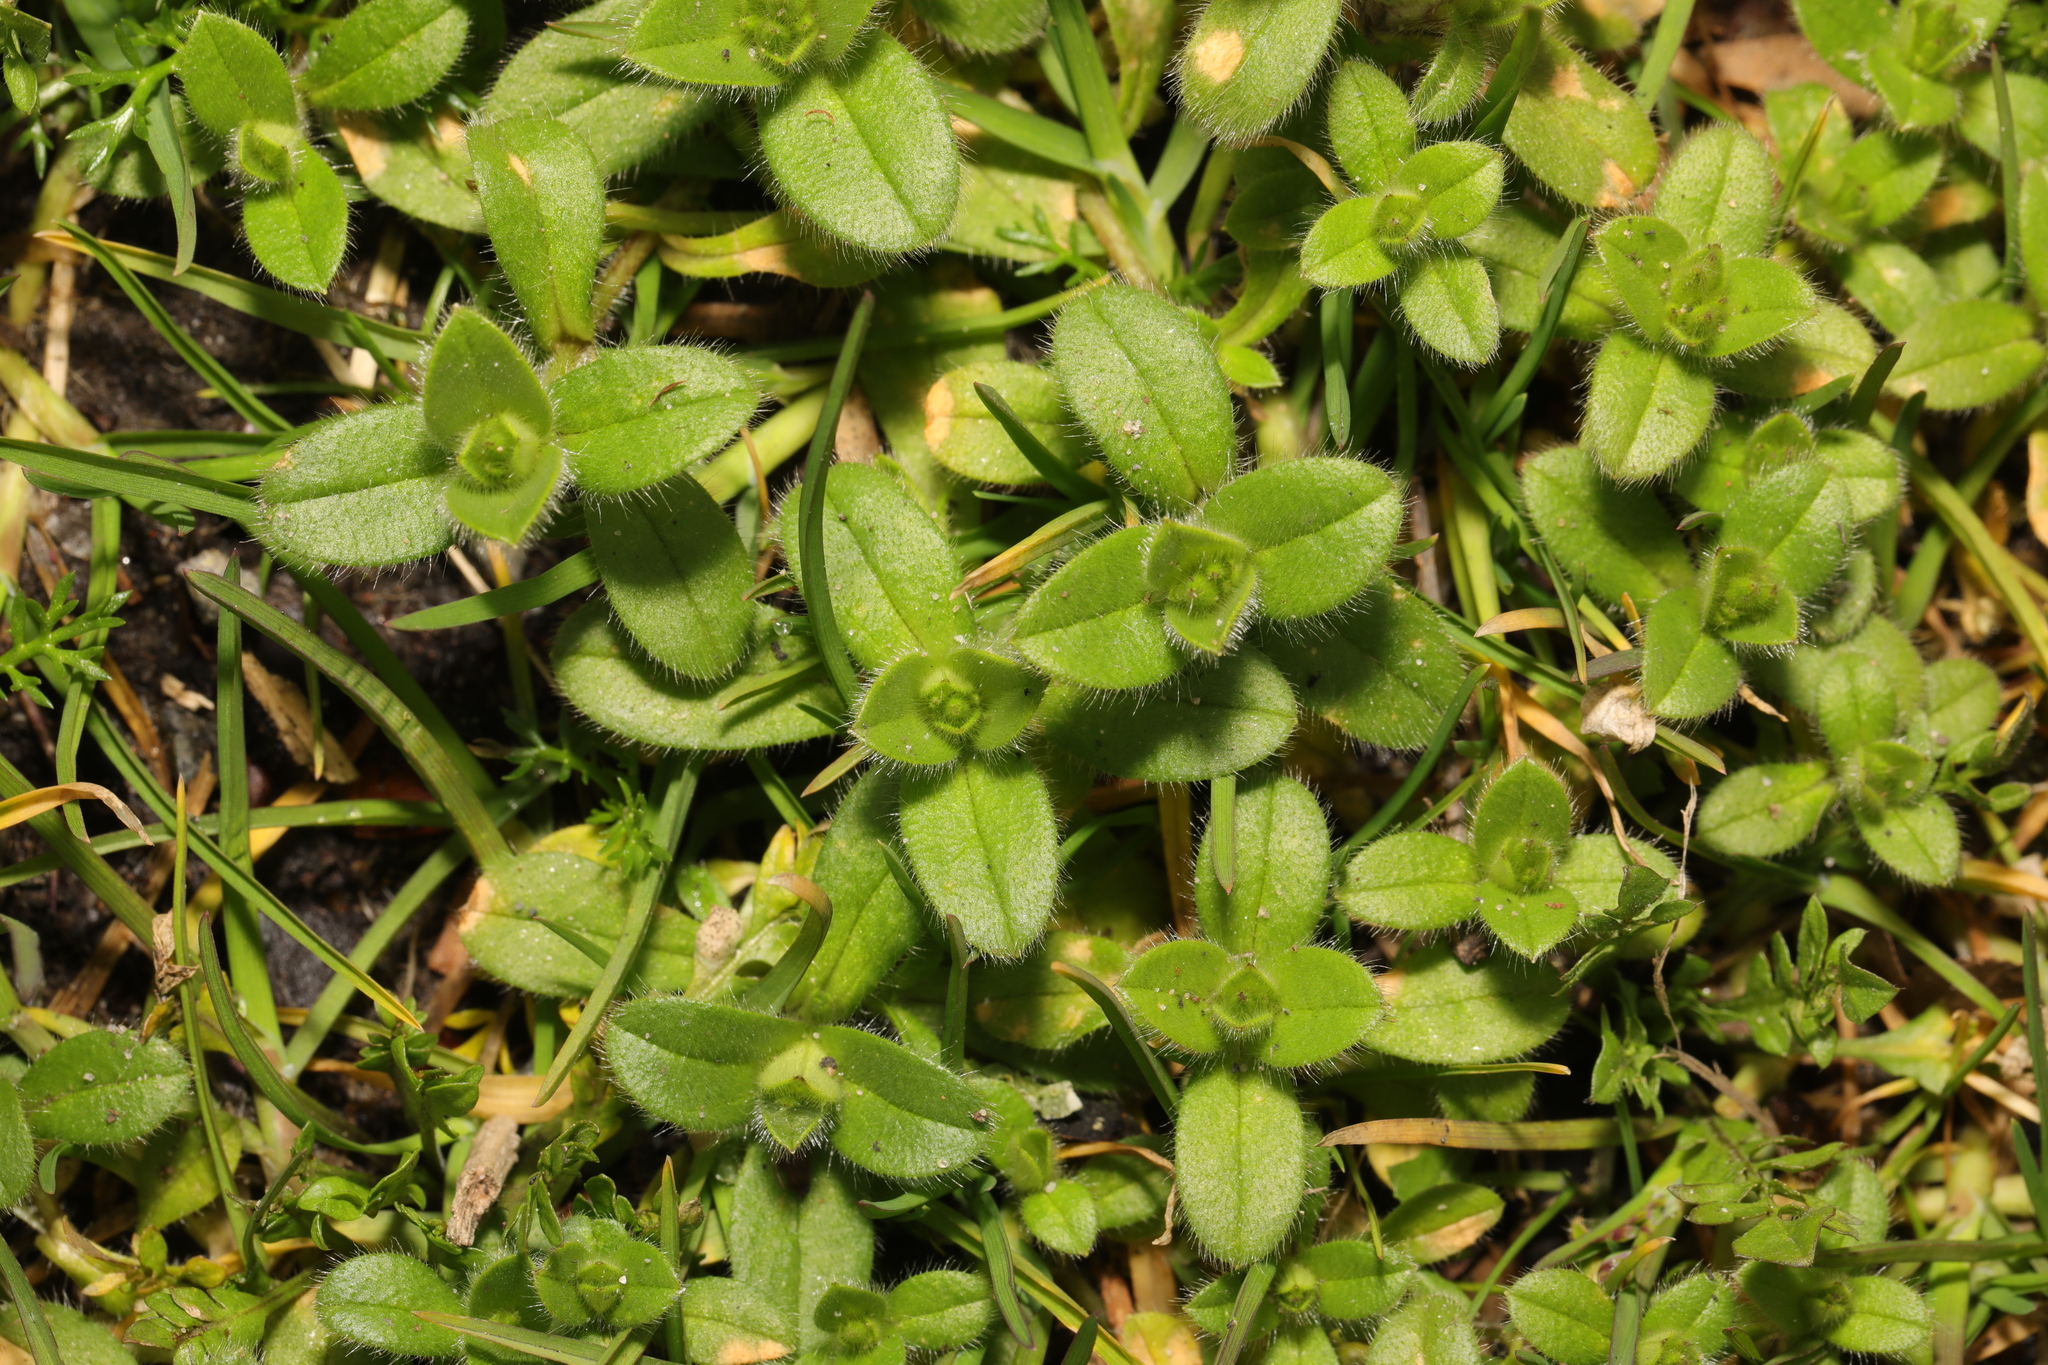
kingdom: Plantae
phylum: Tracheophyta
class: Magnoliopsida
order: Caryophyllales
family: Caryophyllaceae
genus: Cerastium
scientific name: Cerastium fontanum
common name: Common mouse-ear
